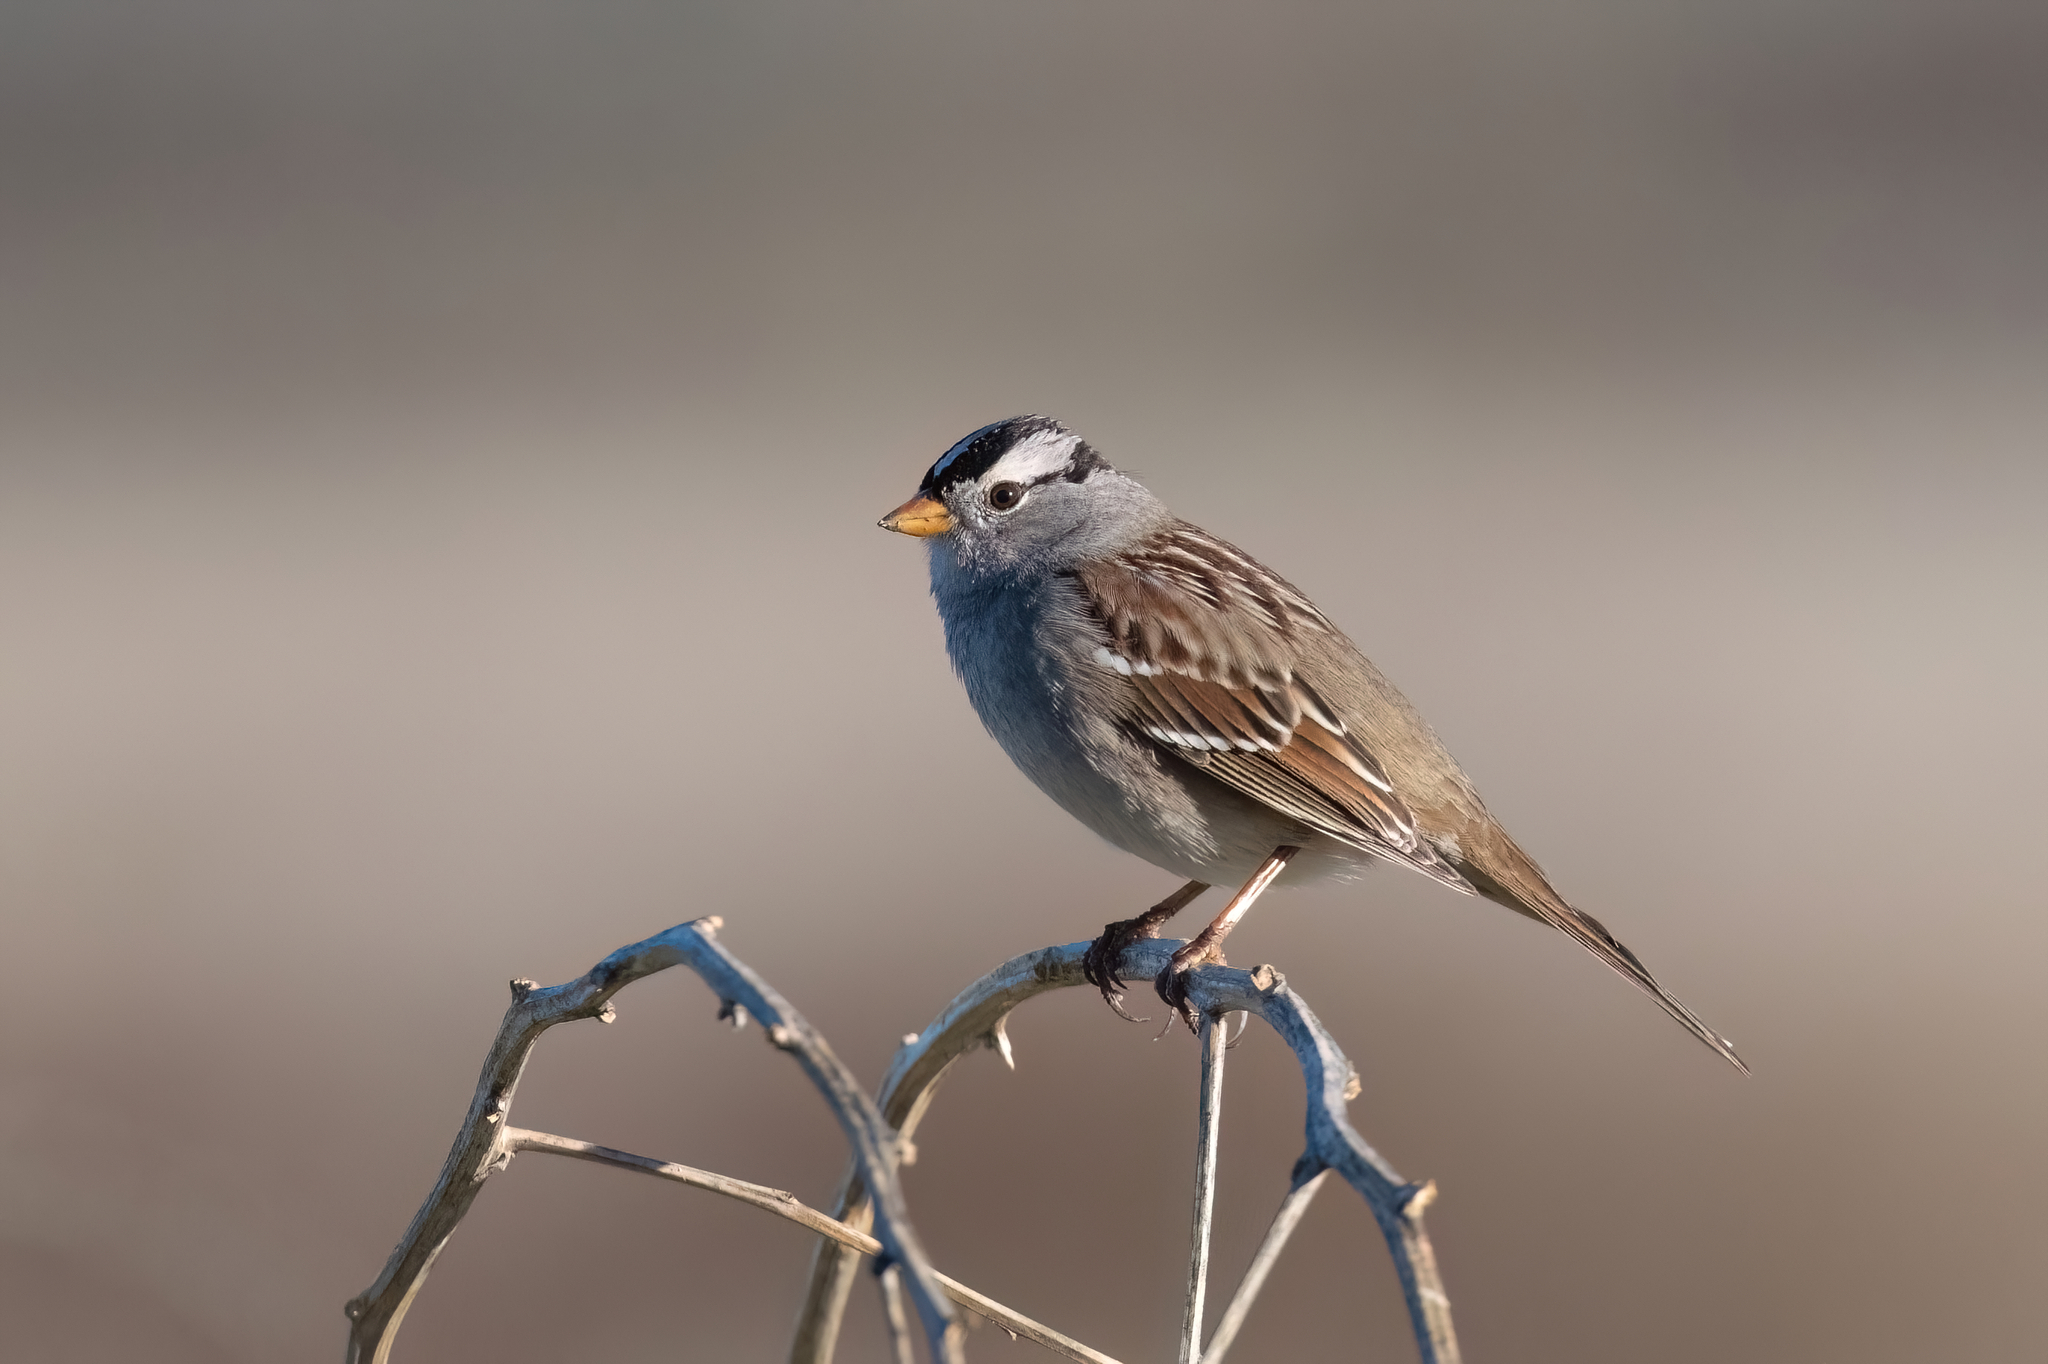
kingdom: Animalia
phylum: Chordata
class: Aves
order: Passeriformes
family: Passerellidae
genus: Zonotrichia
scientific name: Zonotrichia leucophrys
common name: White-crowned sparrow
